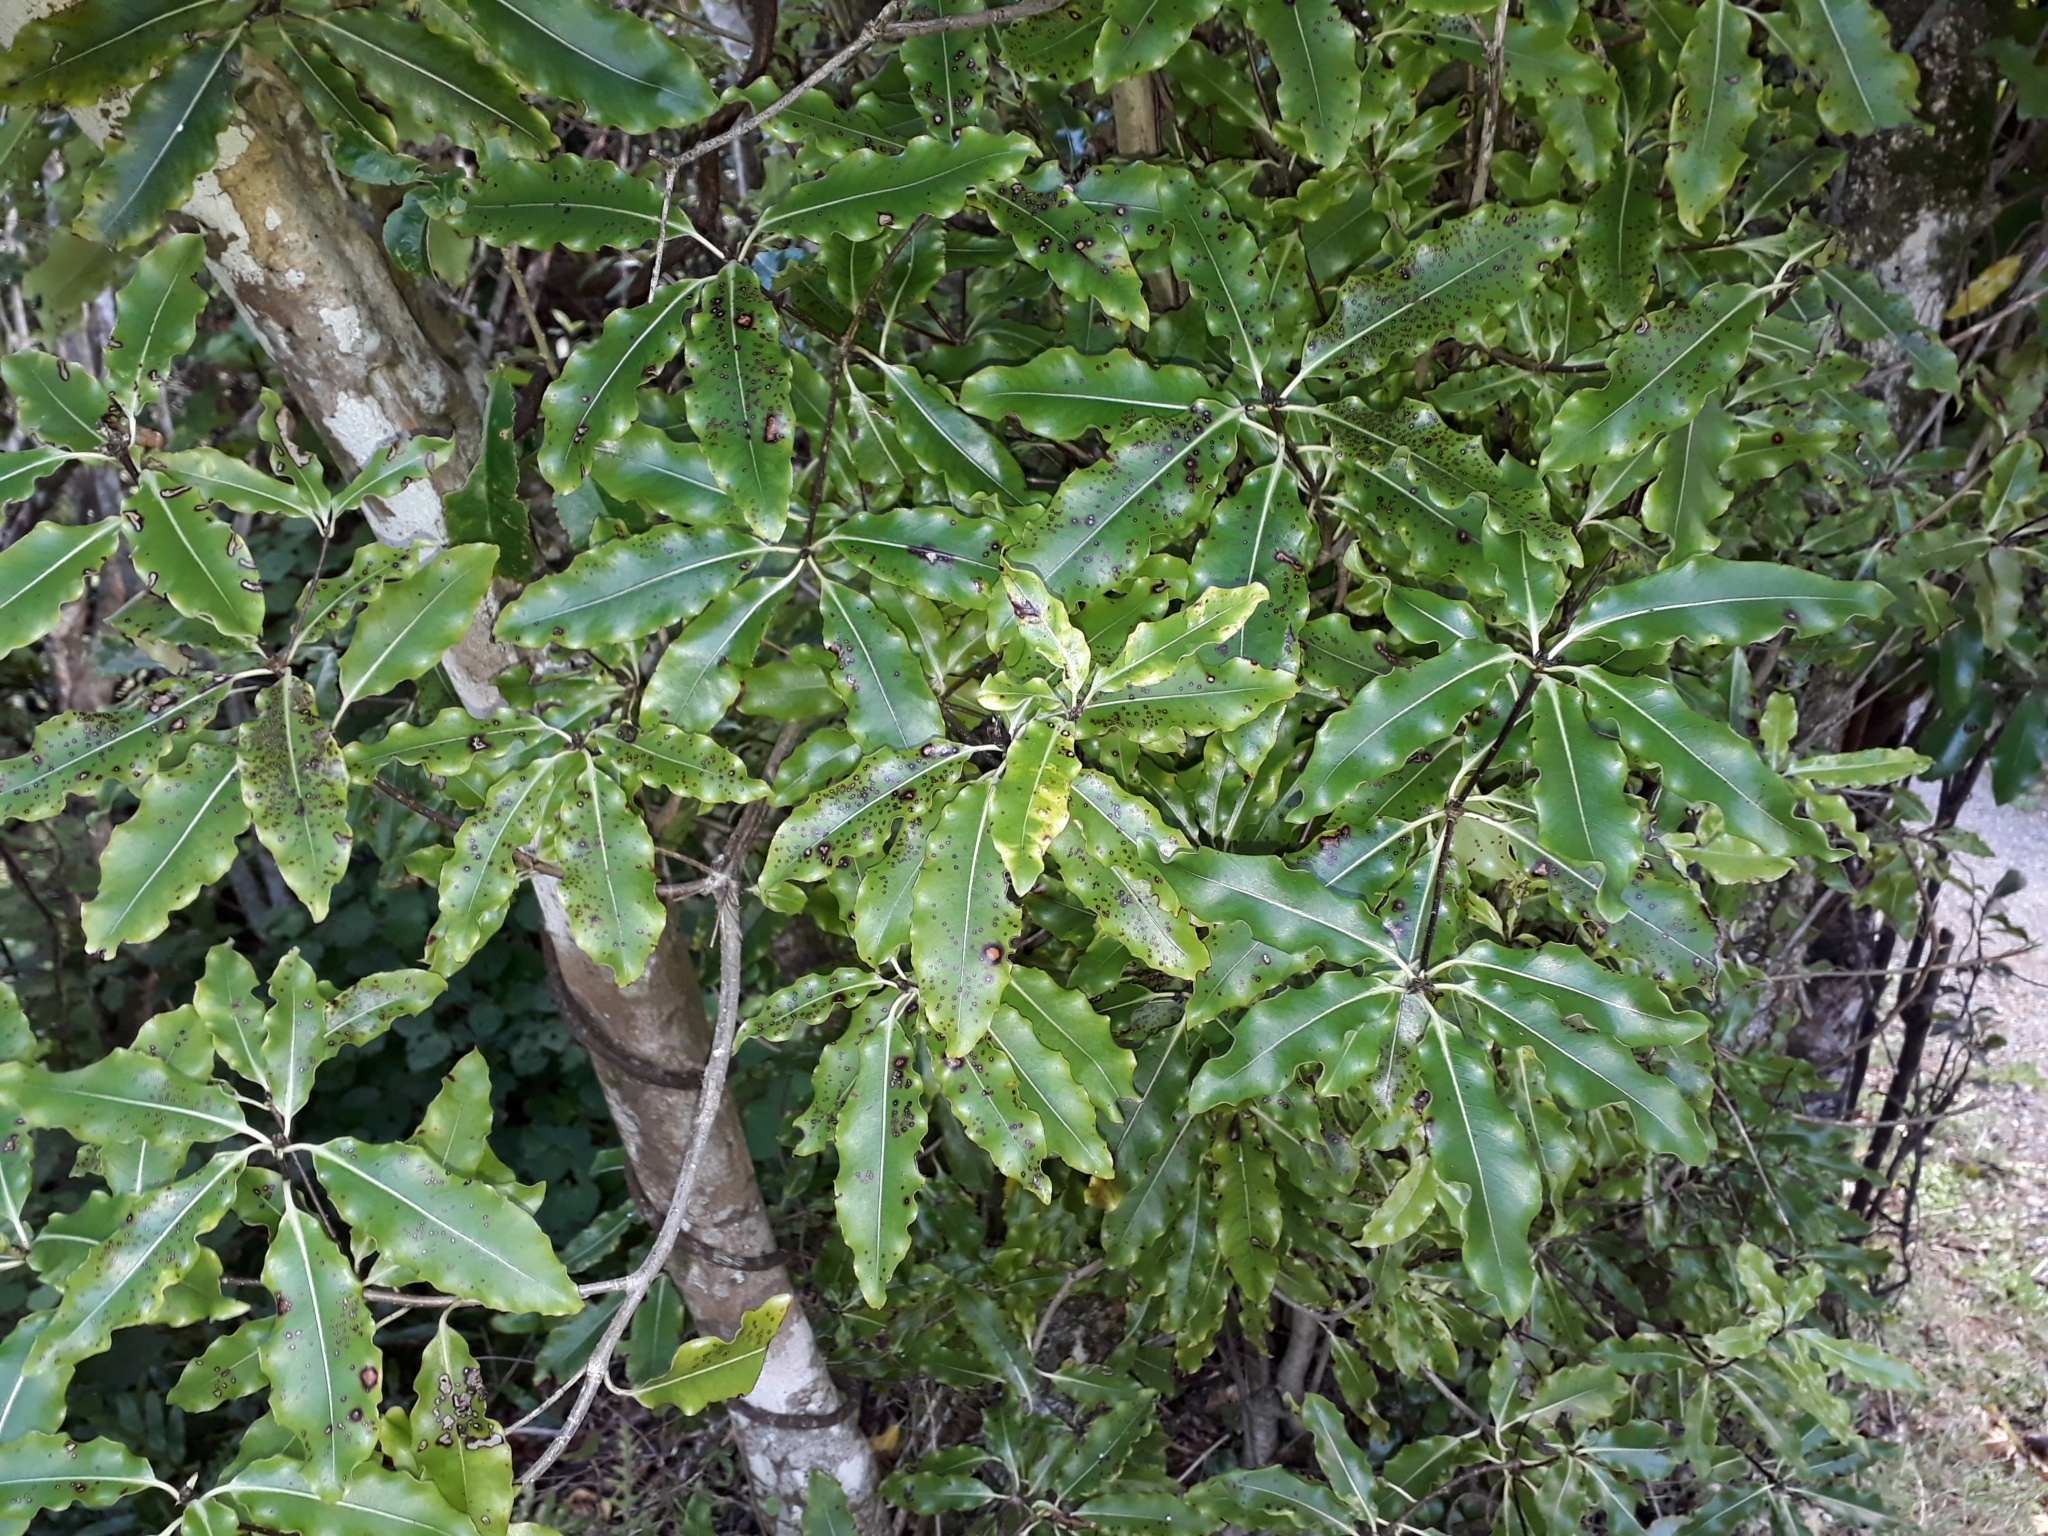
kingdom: Plantae
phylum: Tracheophyta
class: Magnoliopsida
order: Apiales
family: Pittosporaceae
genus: Pittosporum
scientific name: Pittosporum eugenioides
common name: Lemonwood
